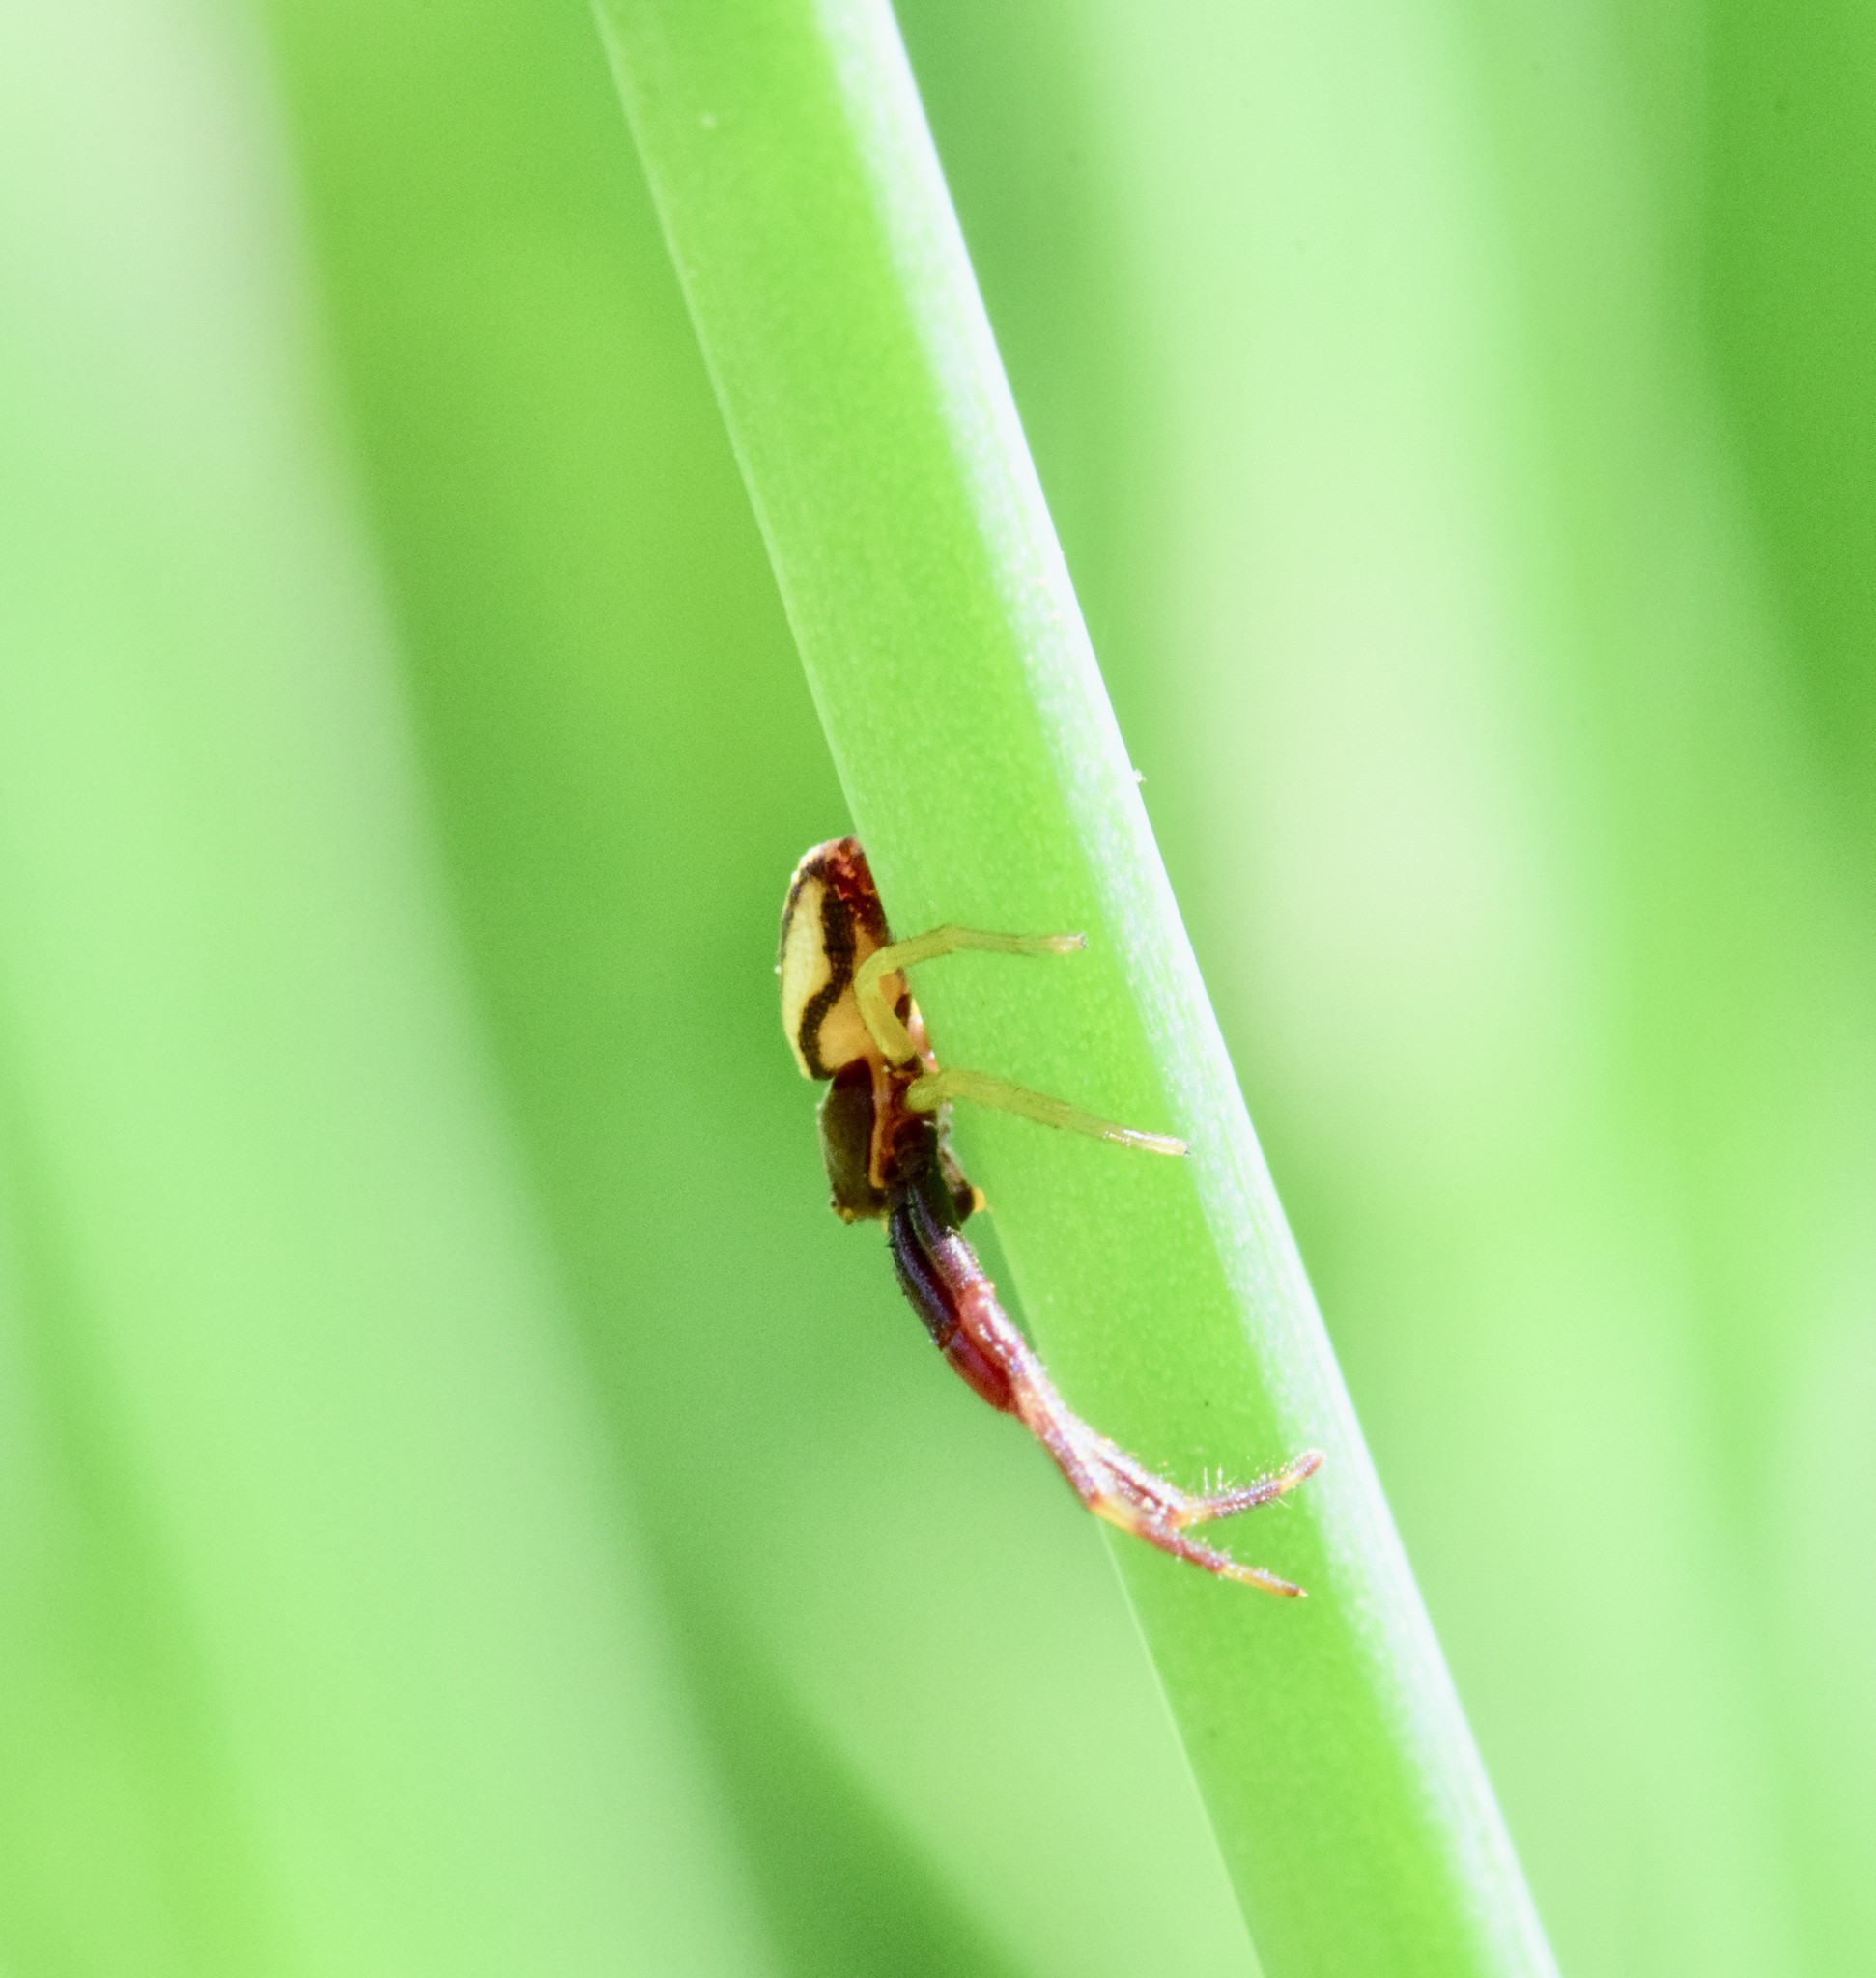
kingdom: Animalia
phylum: Arthropoda
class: Arachnida
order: Araneae
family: Thomisidae
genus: Misumena
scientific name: Misumena vatia
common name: Goldenrod crab spider
